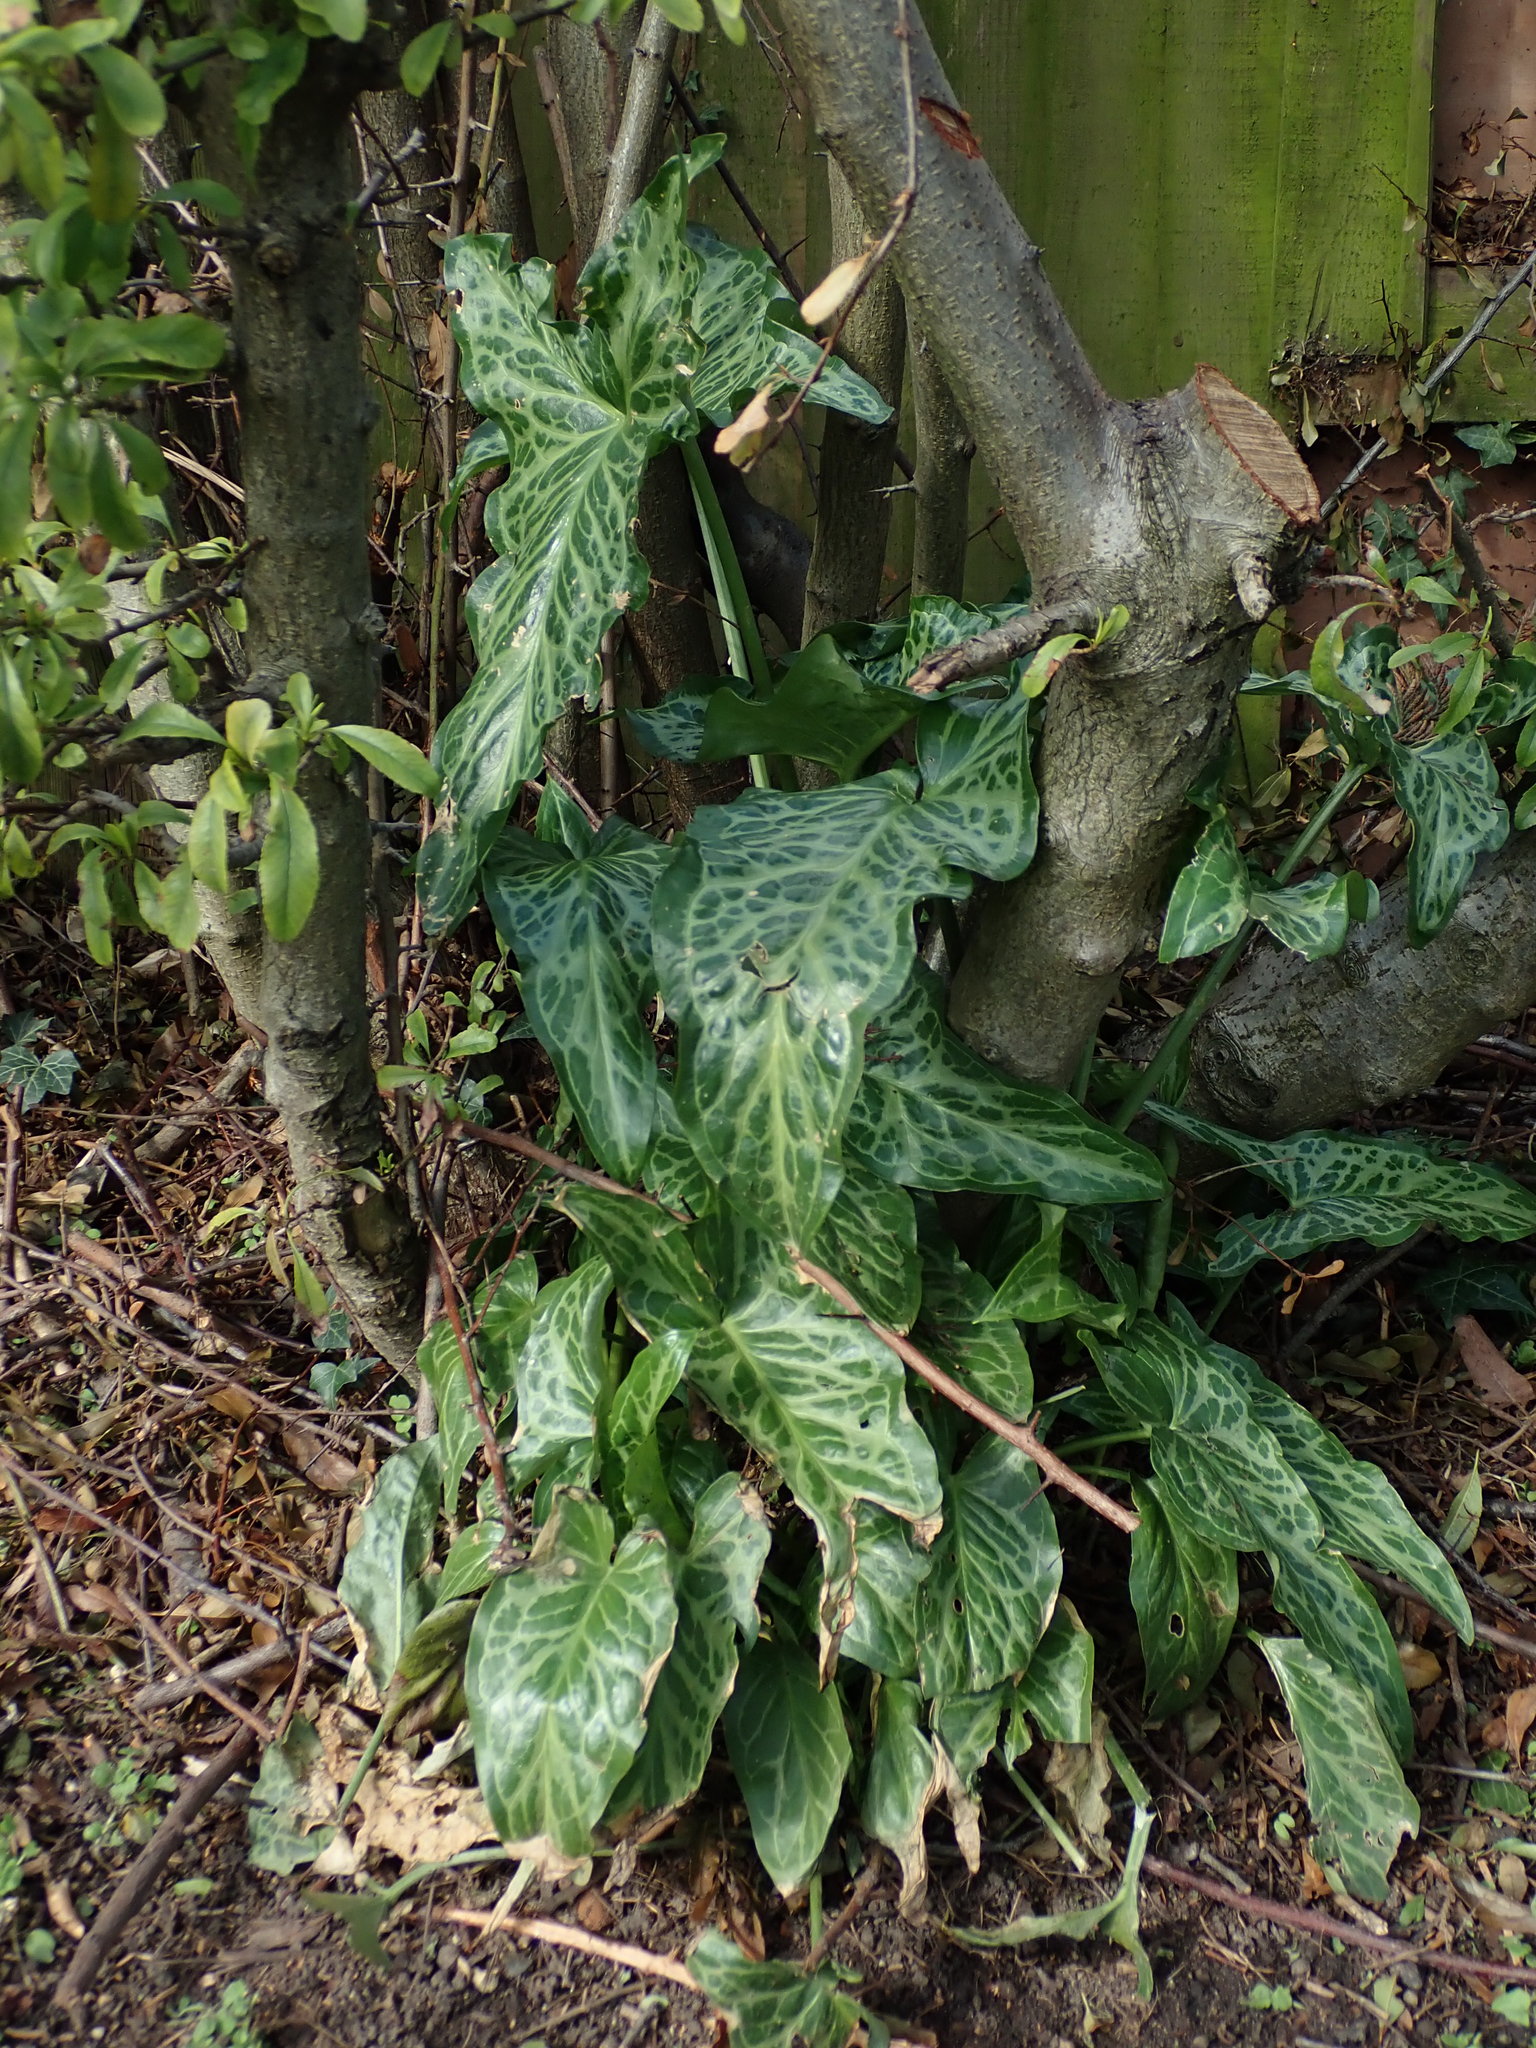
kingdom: Plantae
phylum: Tracheophyta
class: Liliopsida
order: Alismatales
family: Araceae
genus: Arum
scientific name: Arum italicum
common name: Italian lords-and-ladies
